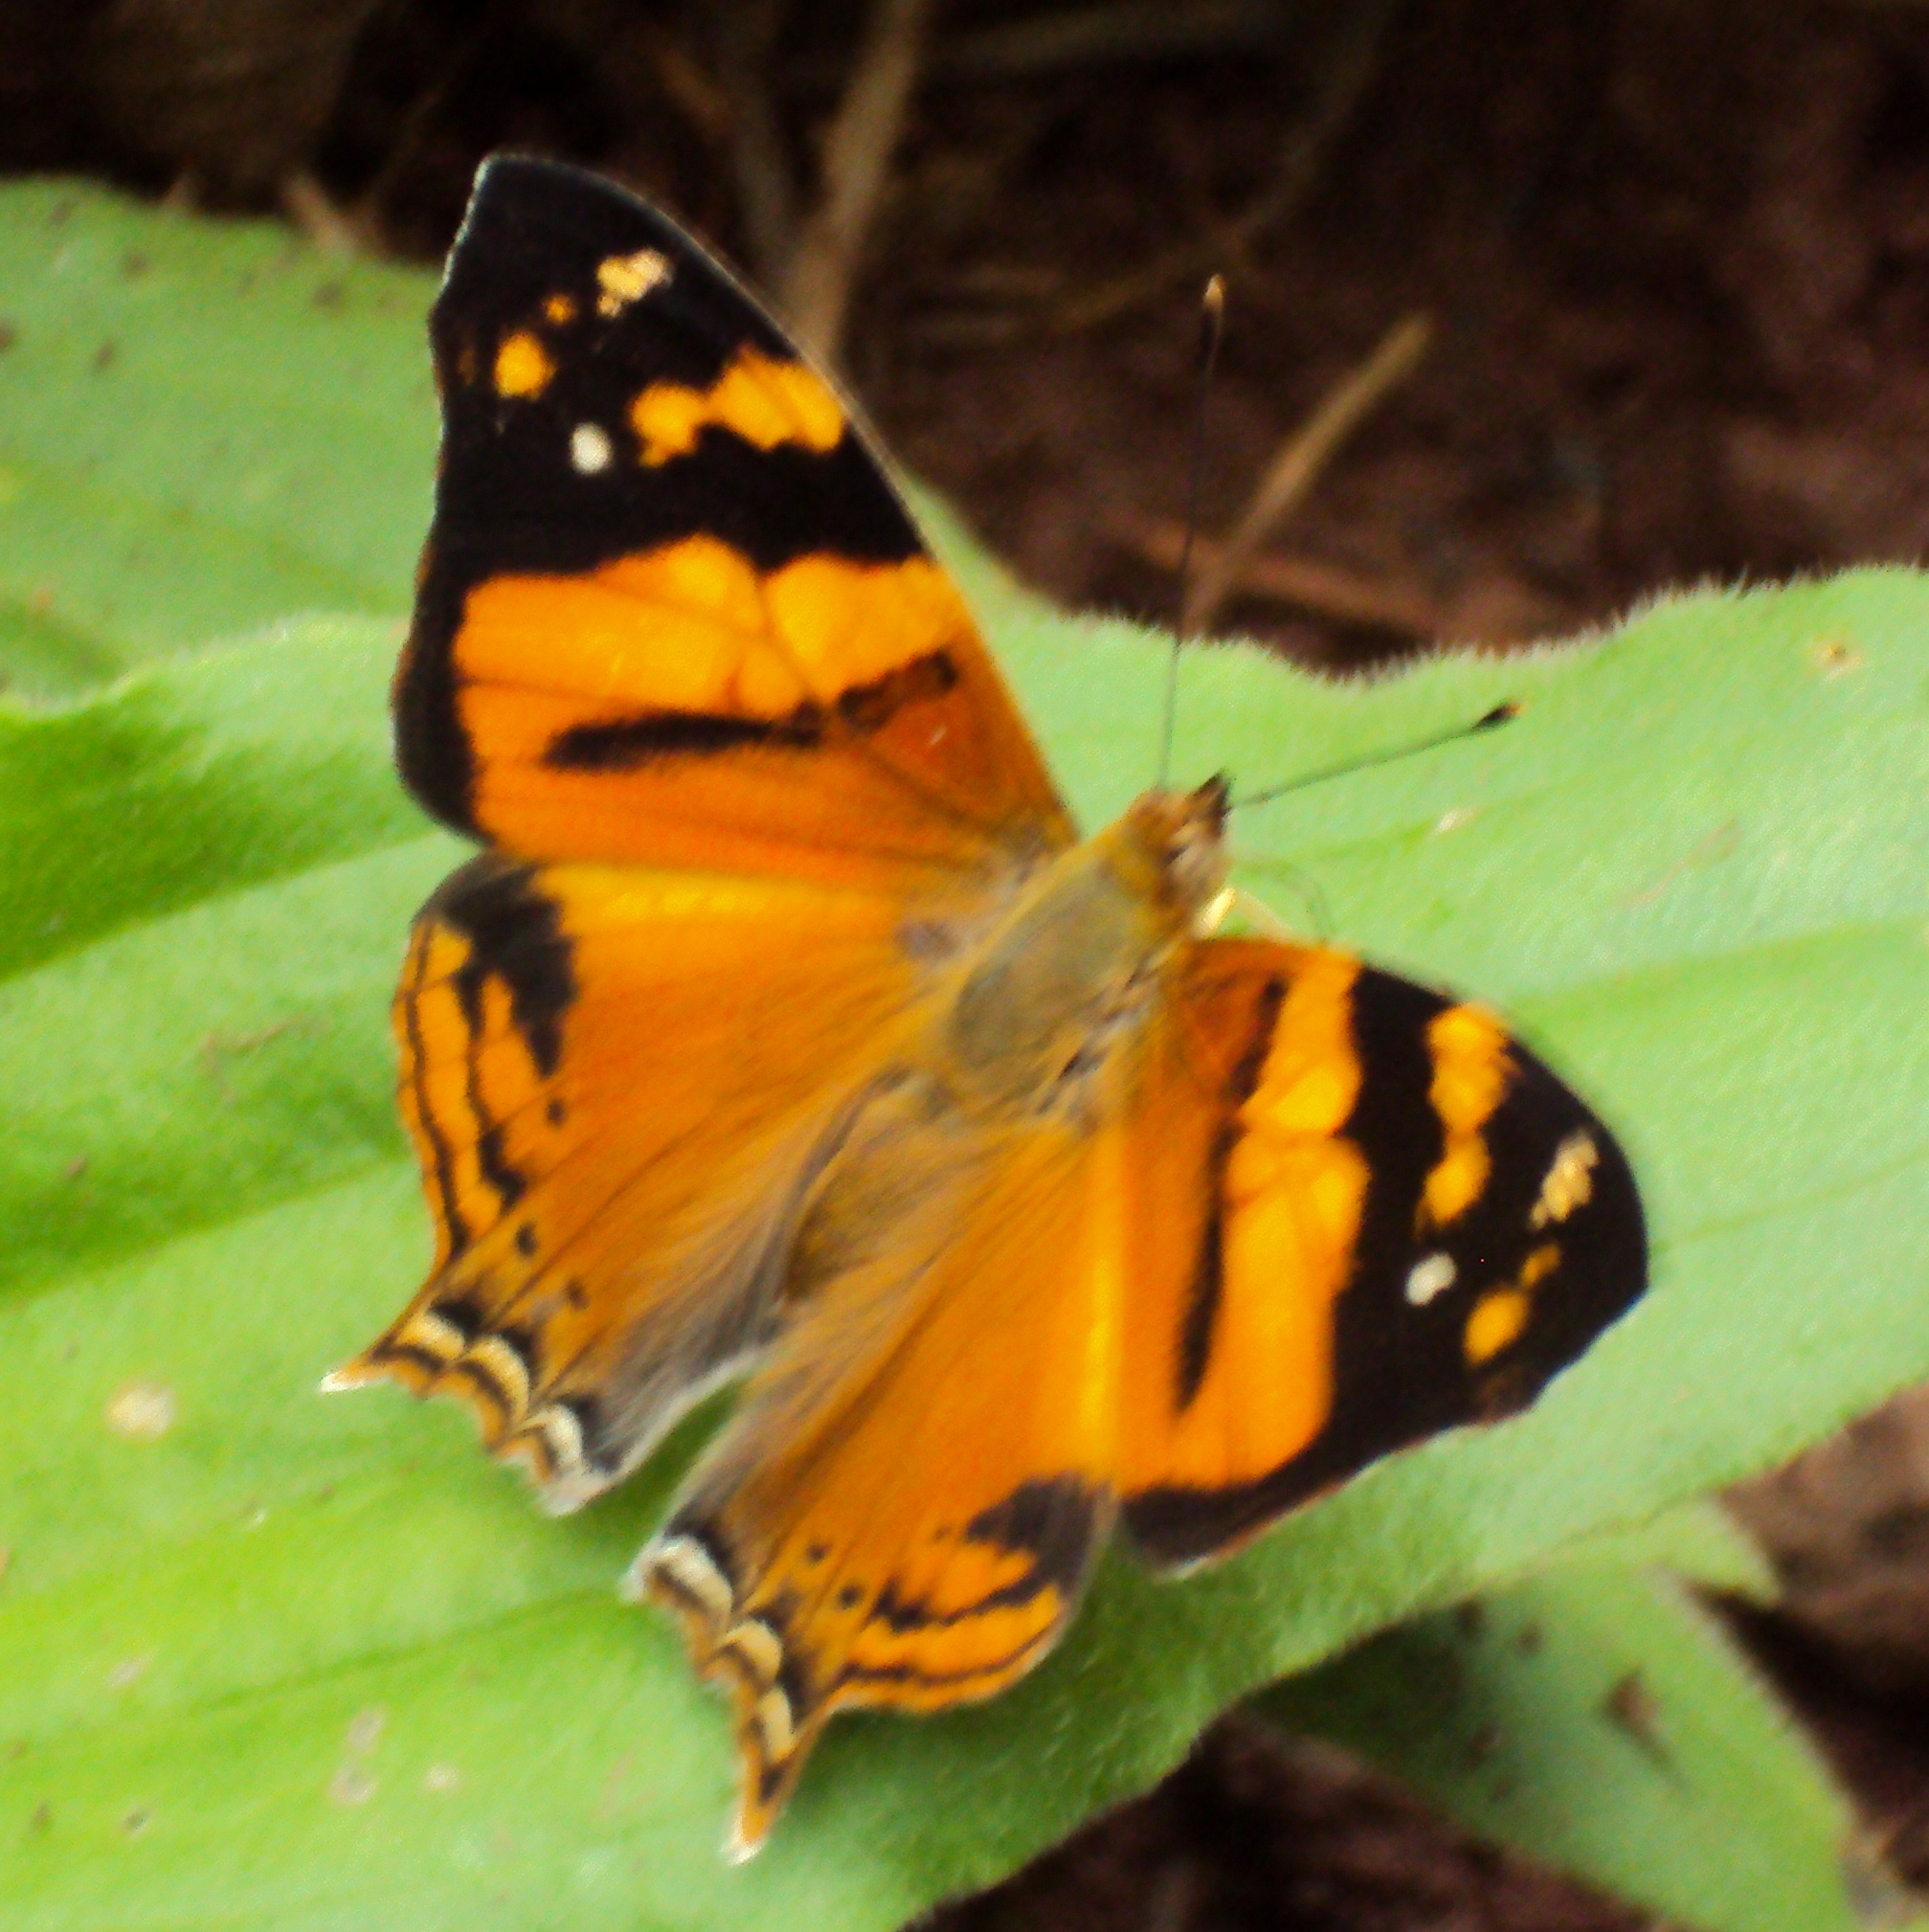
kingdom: Animalia
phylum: Arthropoda
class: Insecta
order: Lepidoptera
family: Nymphalidae
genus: Hypanartia
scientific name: Hypanartia lethe
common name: Orange mapwing
